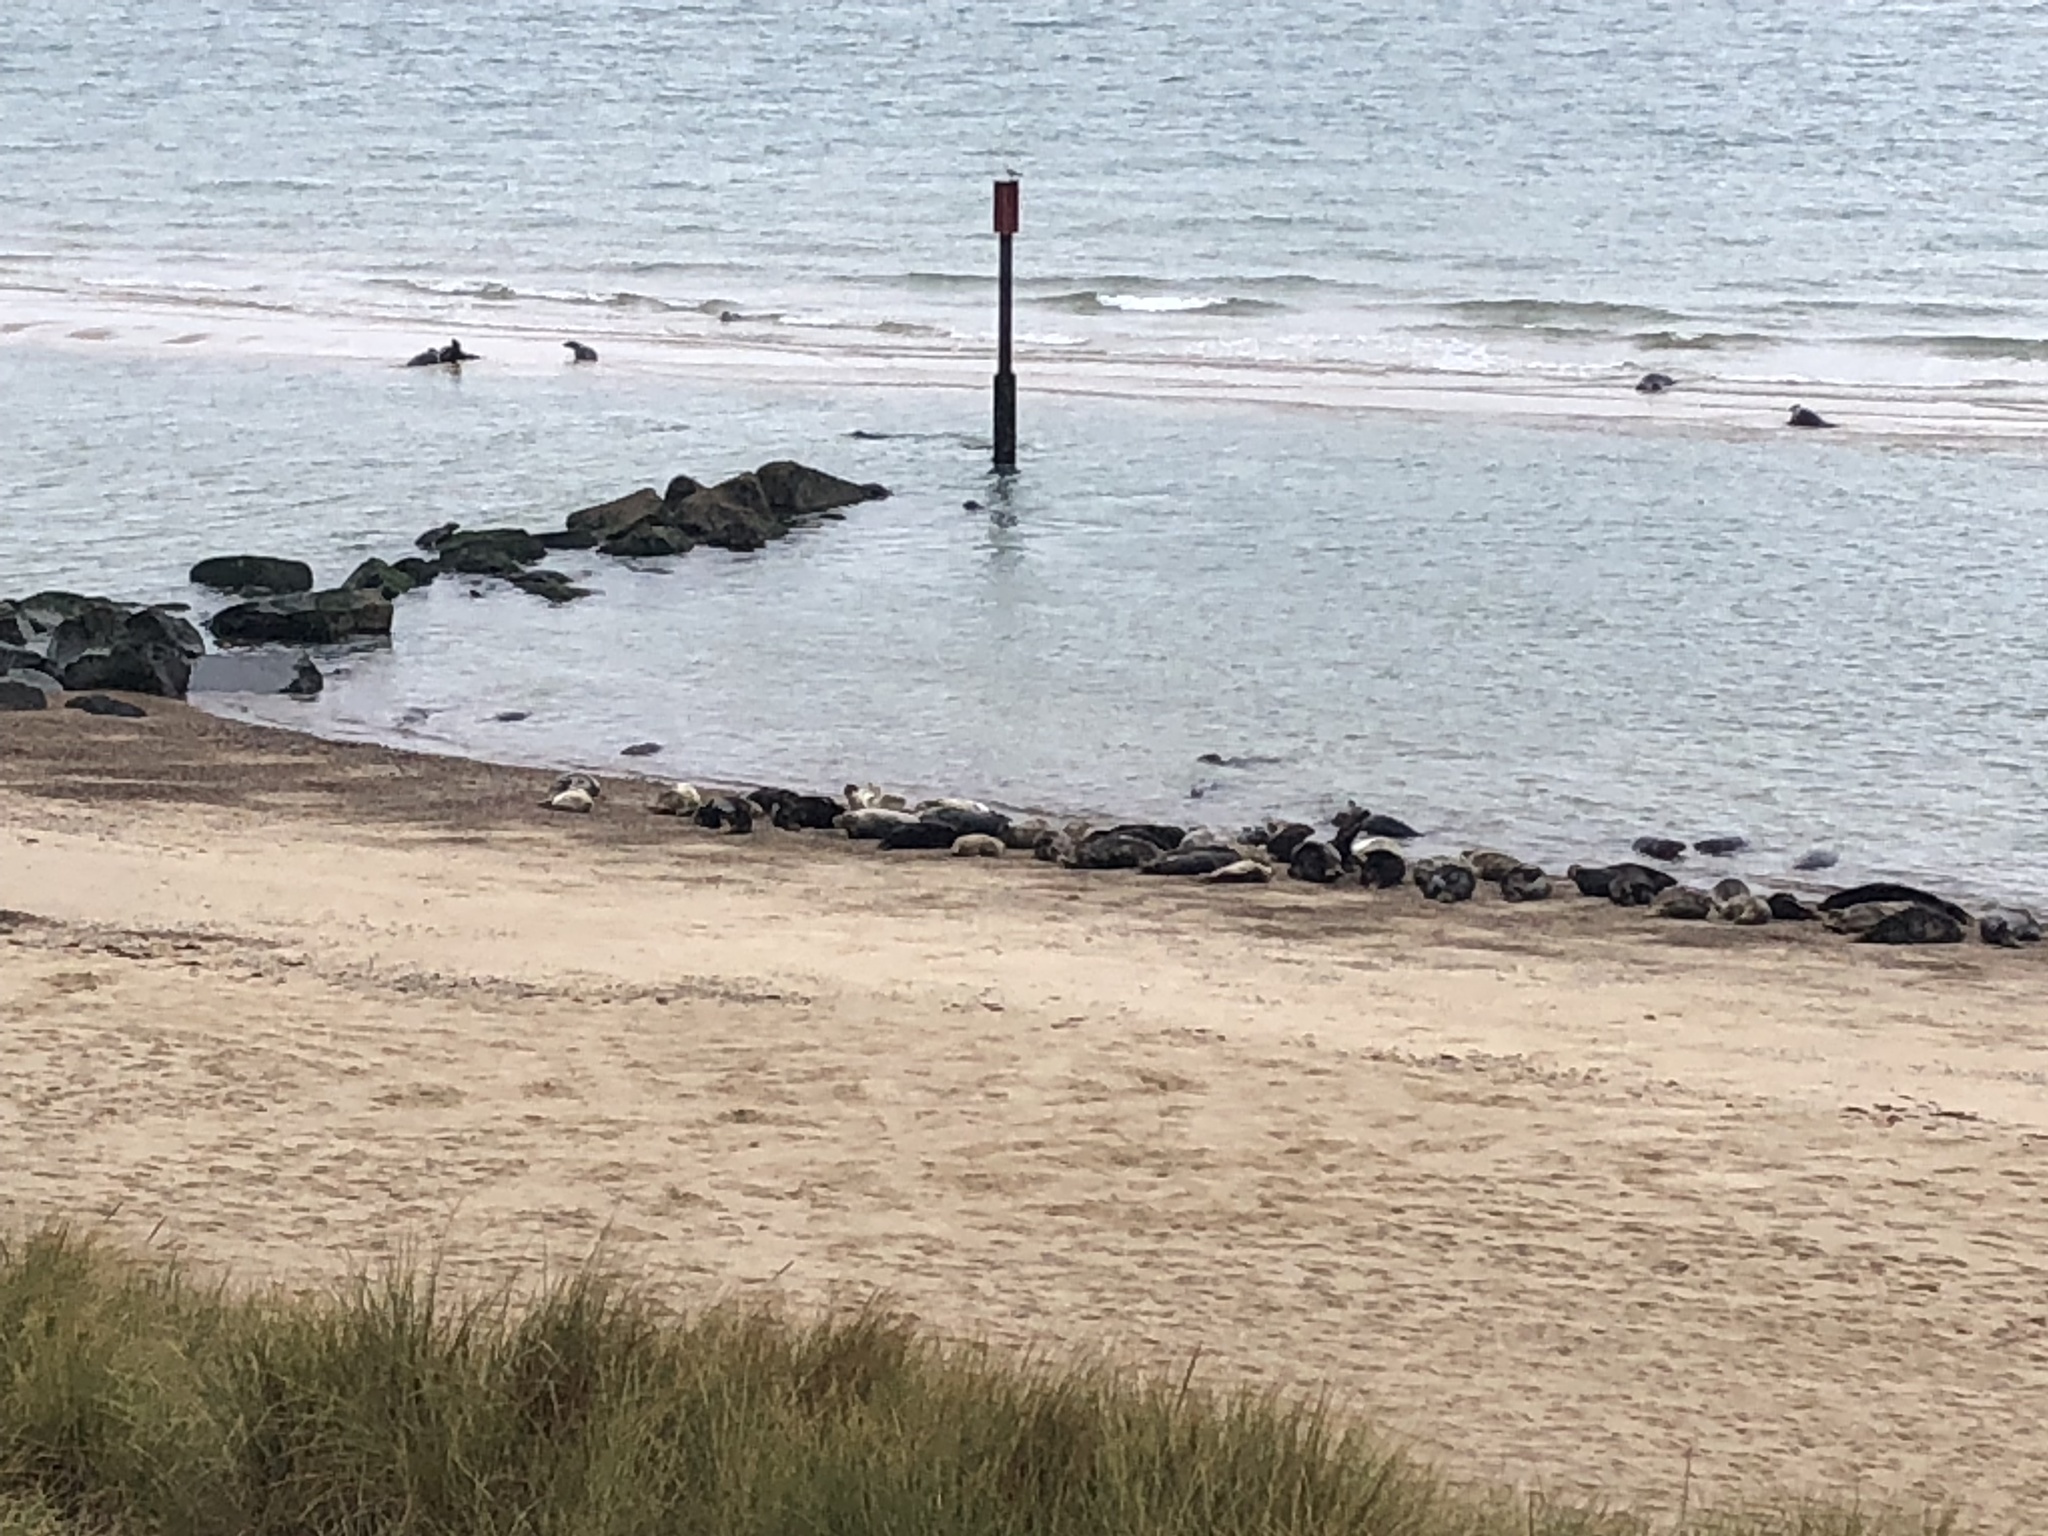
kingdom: Animalia
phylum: Chordata
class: Mammalia
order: Carnivora
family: Phocidae
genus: Halichoerus
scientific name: Halichoerus grypus
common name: Grey seal
